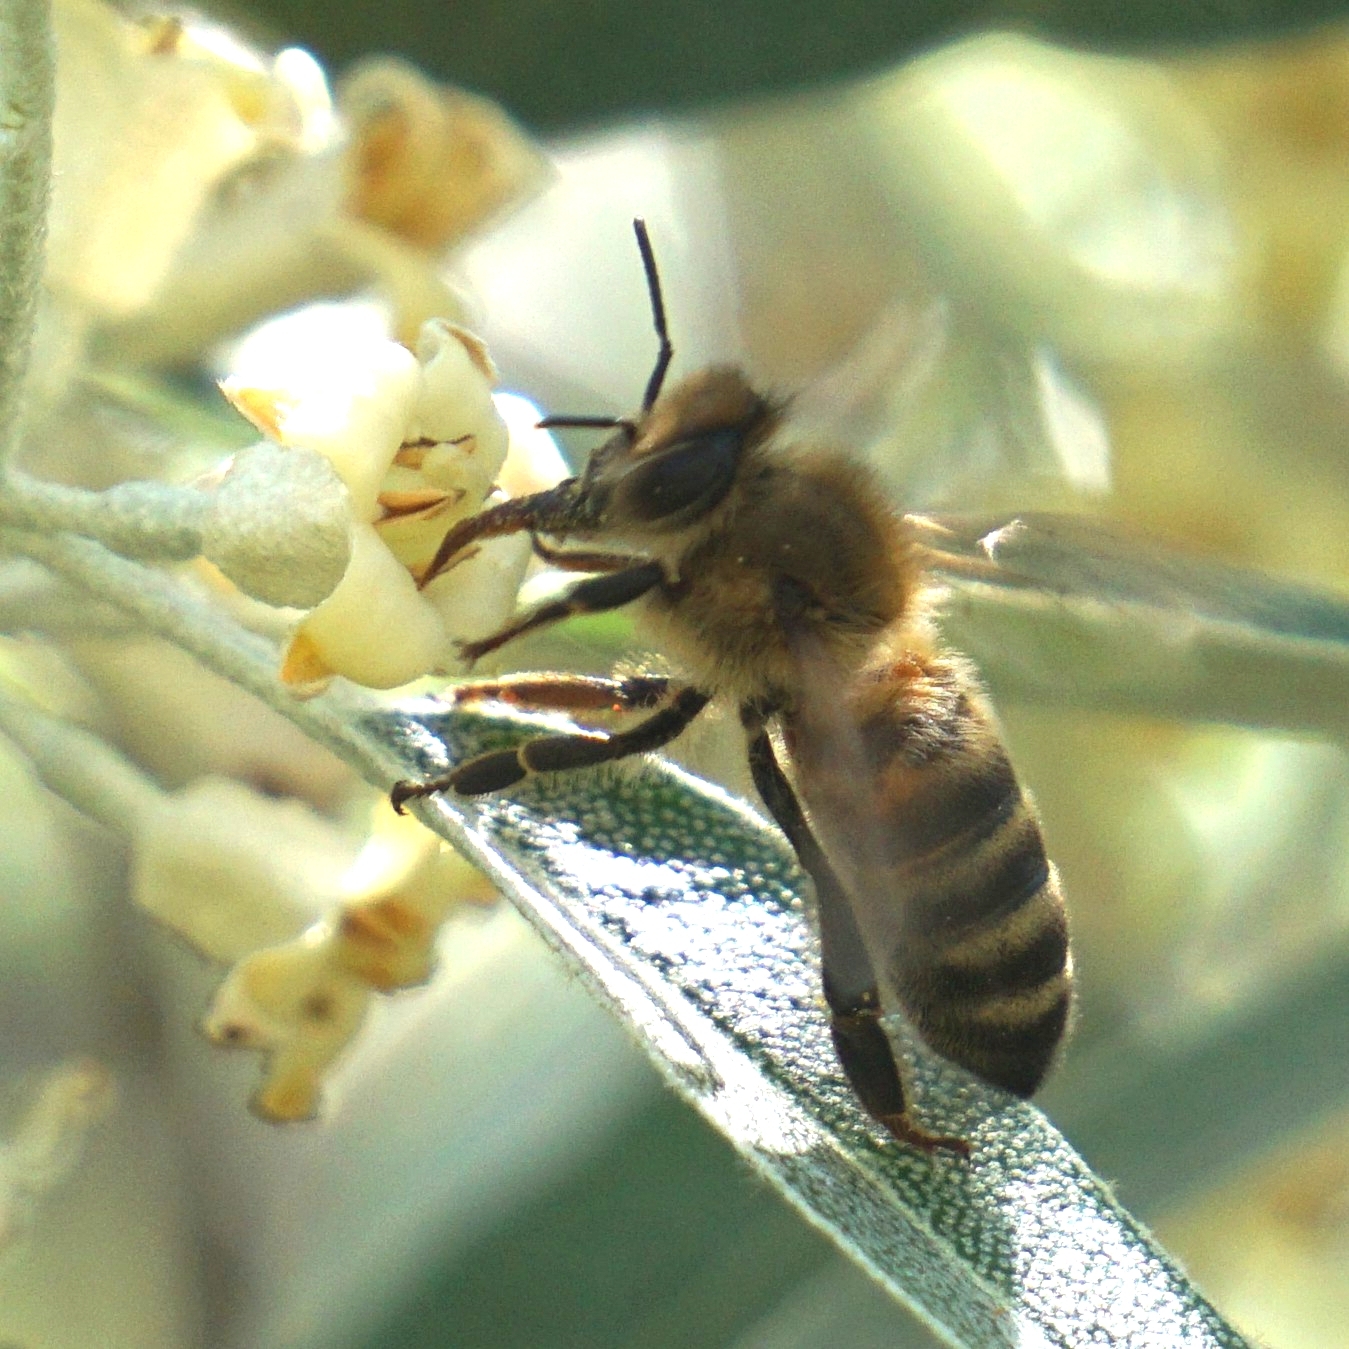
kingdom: Animalia
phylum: Arthropoda
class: Insecta
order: Hymenoptera
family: Apidae
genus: Apis
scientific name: Apis mellifera
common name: Honey bee
